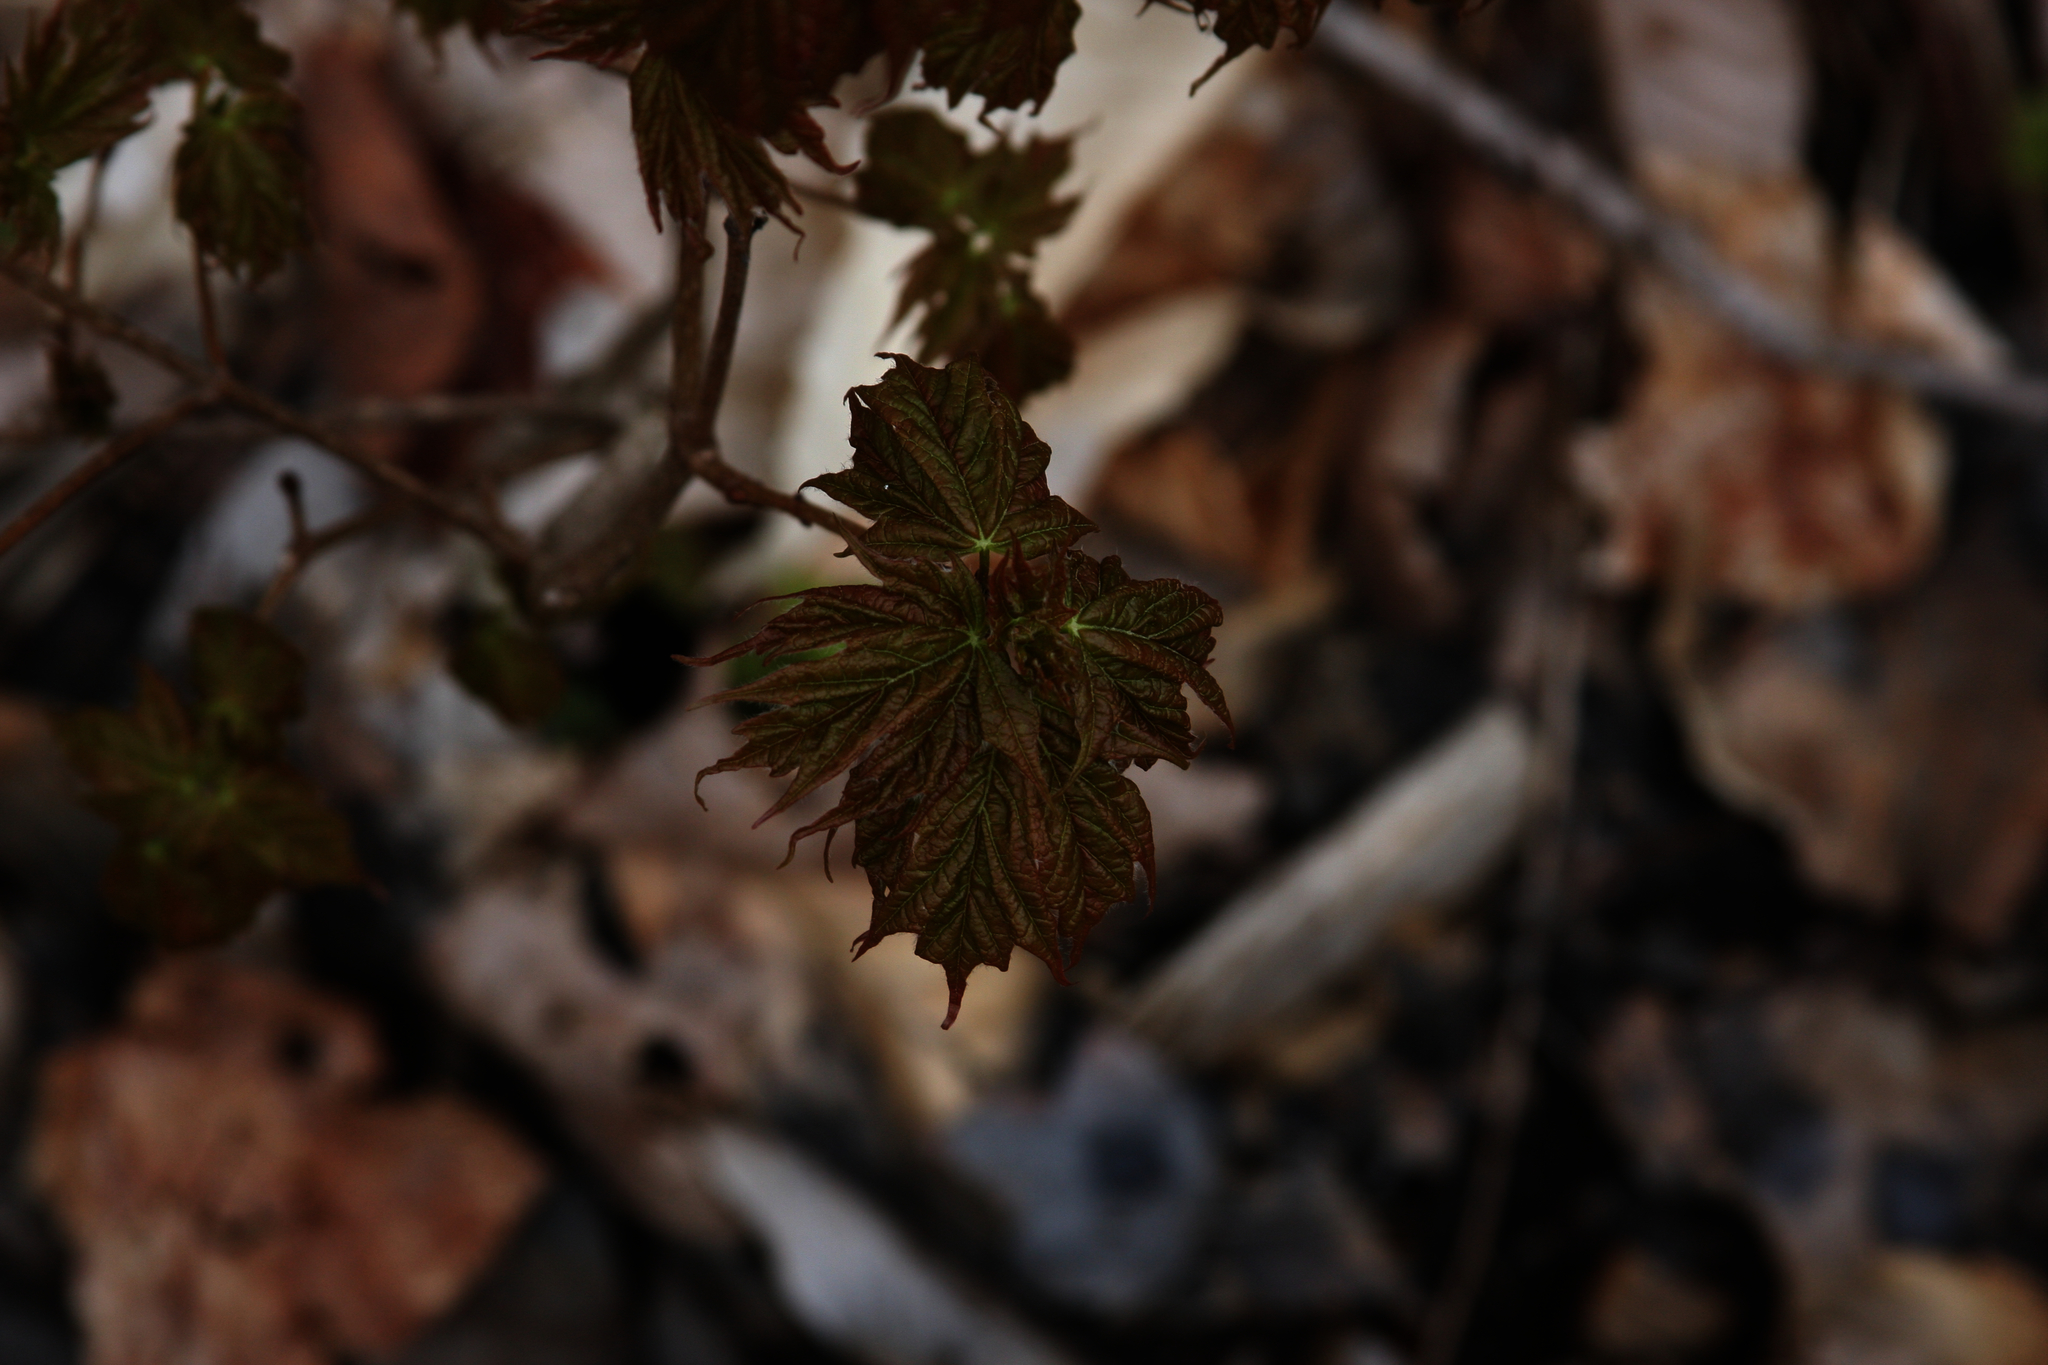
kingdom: Plantae
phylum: Tracheophyta
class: Magnoliopsida
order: Sapindales
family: Sapindaceae
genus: Acer
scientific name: Acer rubrum
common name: Red maple
